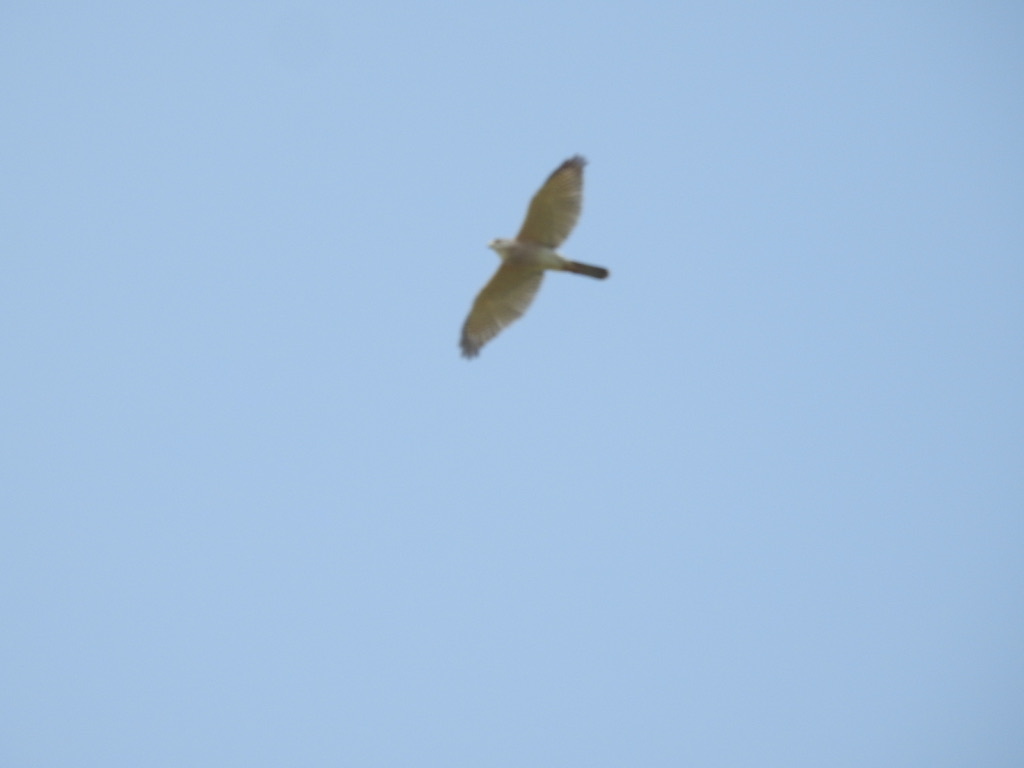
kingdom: Animalia
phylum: Chordata
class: Aves
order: Accipitriformes
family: Accipitridae
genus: Accipiter
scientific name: Accipiter badius
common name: Shikra
